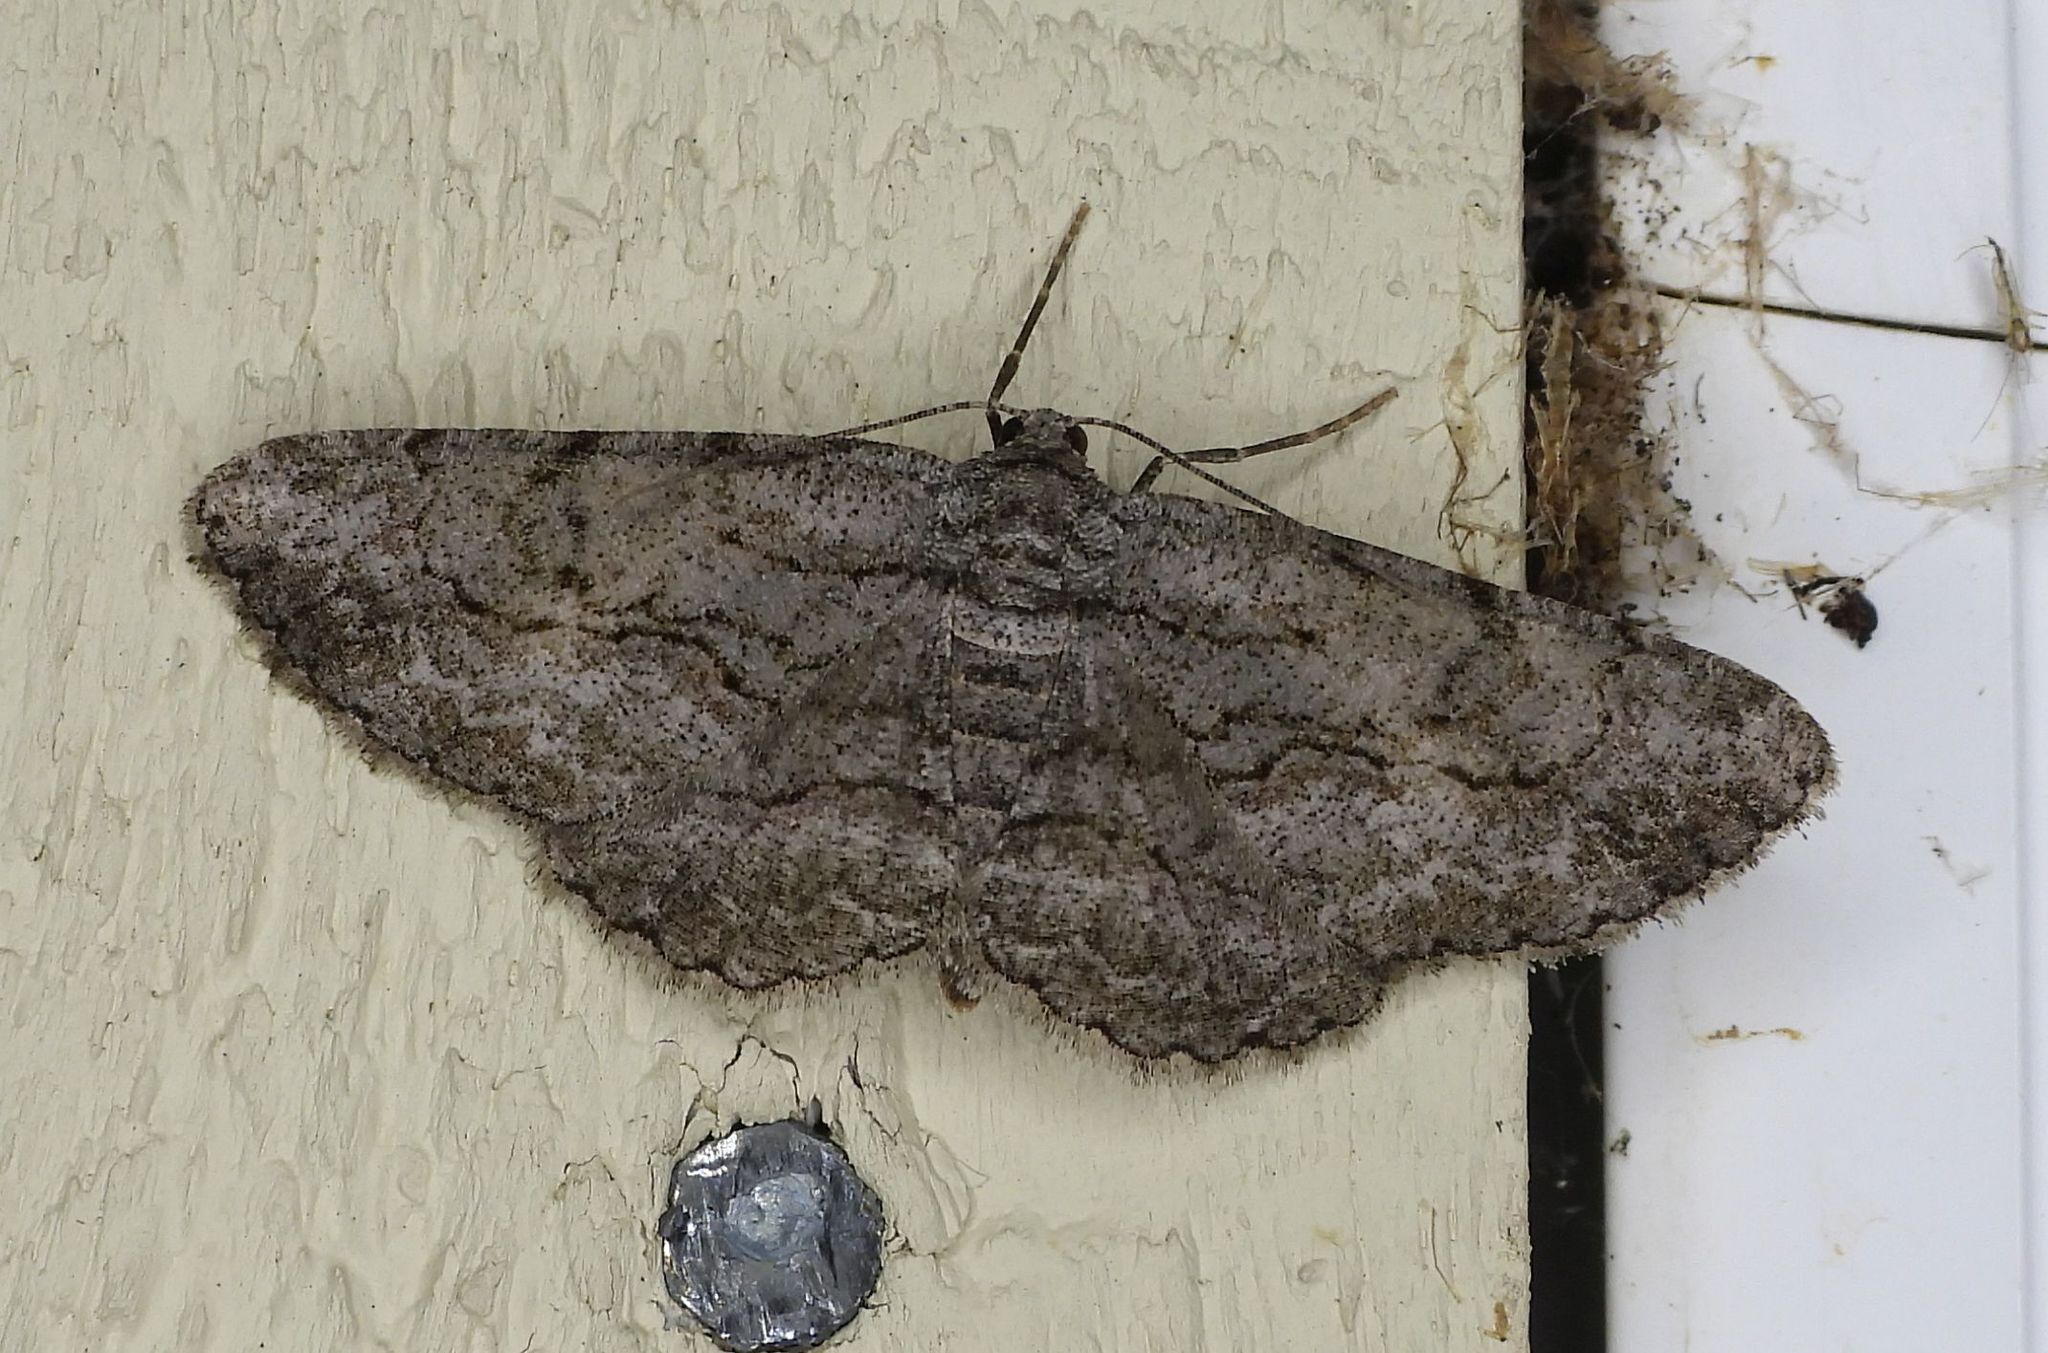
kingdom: Animalia
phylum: Arthropoda
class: Insecta
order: Lepidoptera
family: Geometridae
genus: Anavitrinella
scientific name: Anavitrinella pampinaria
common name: Common gray
